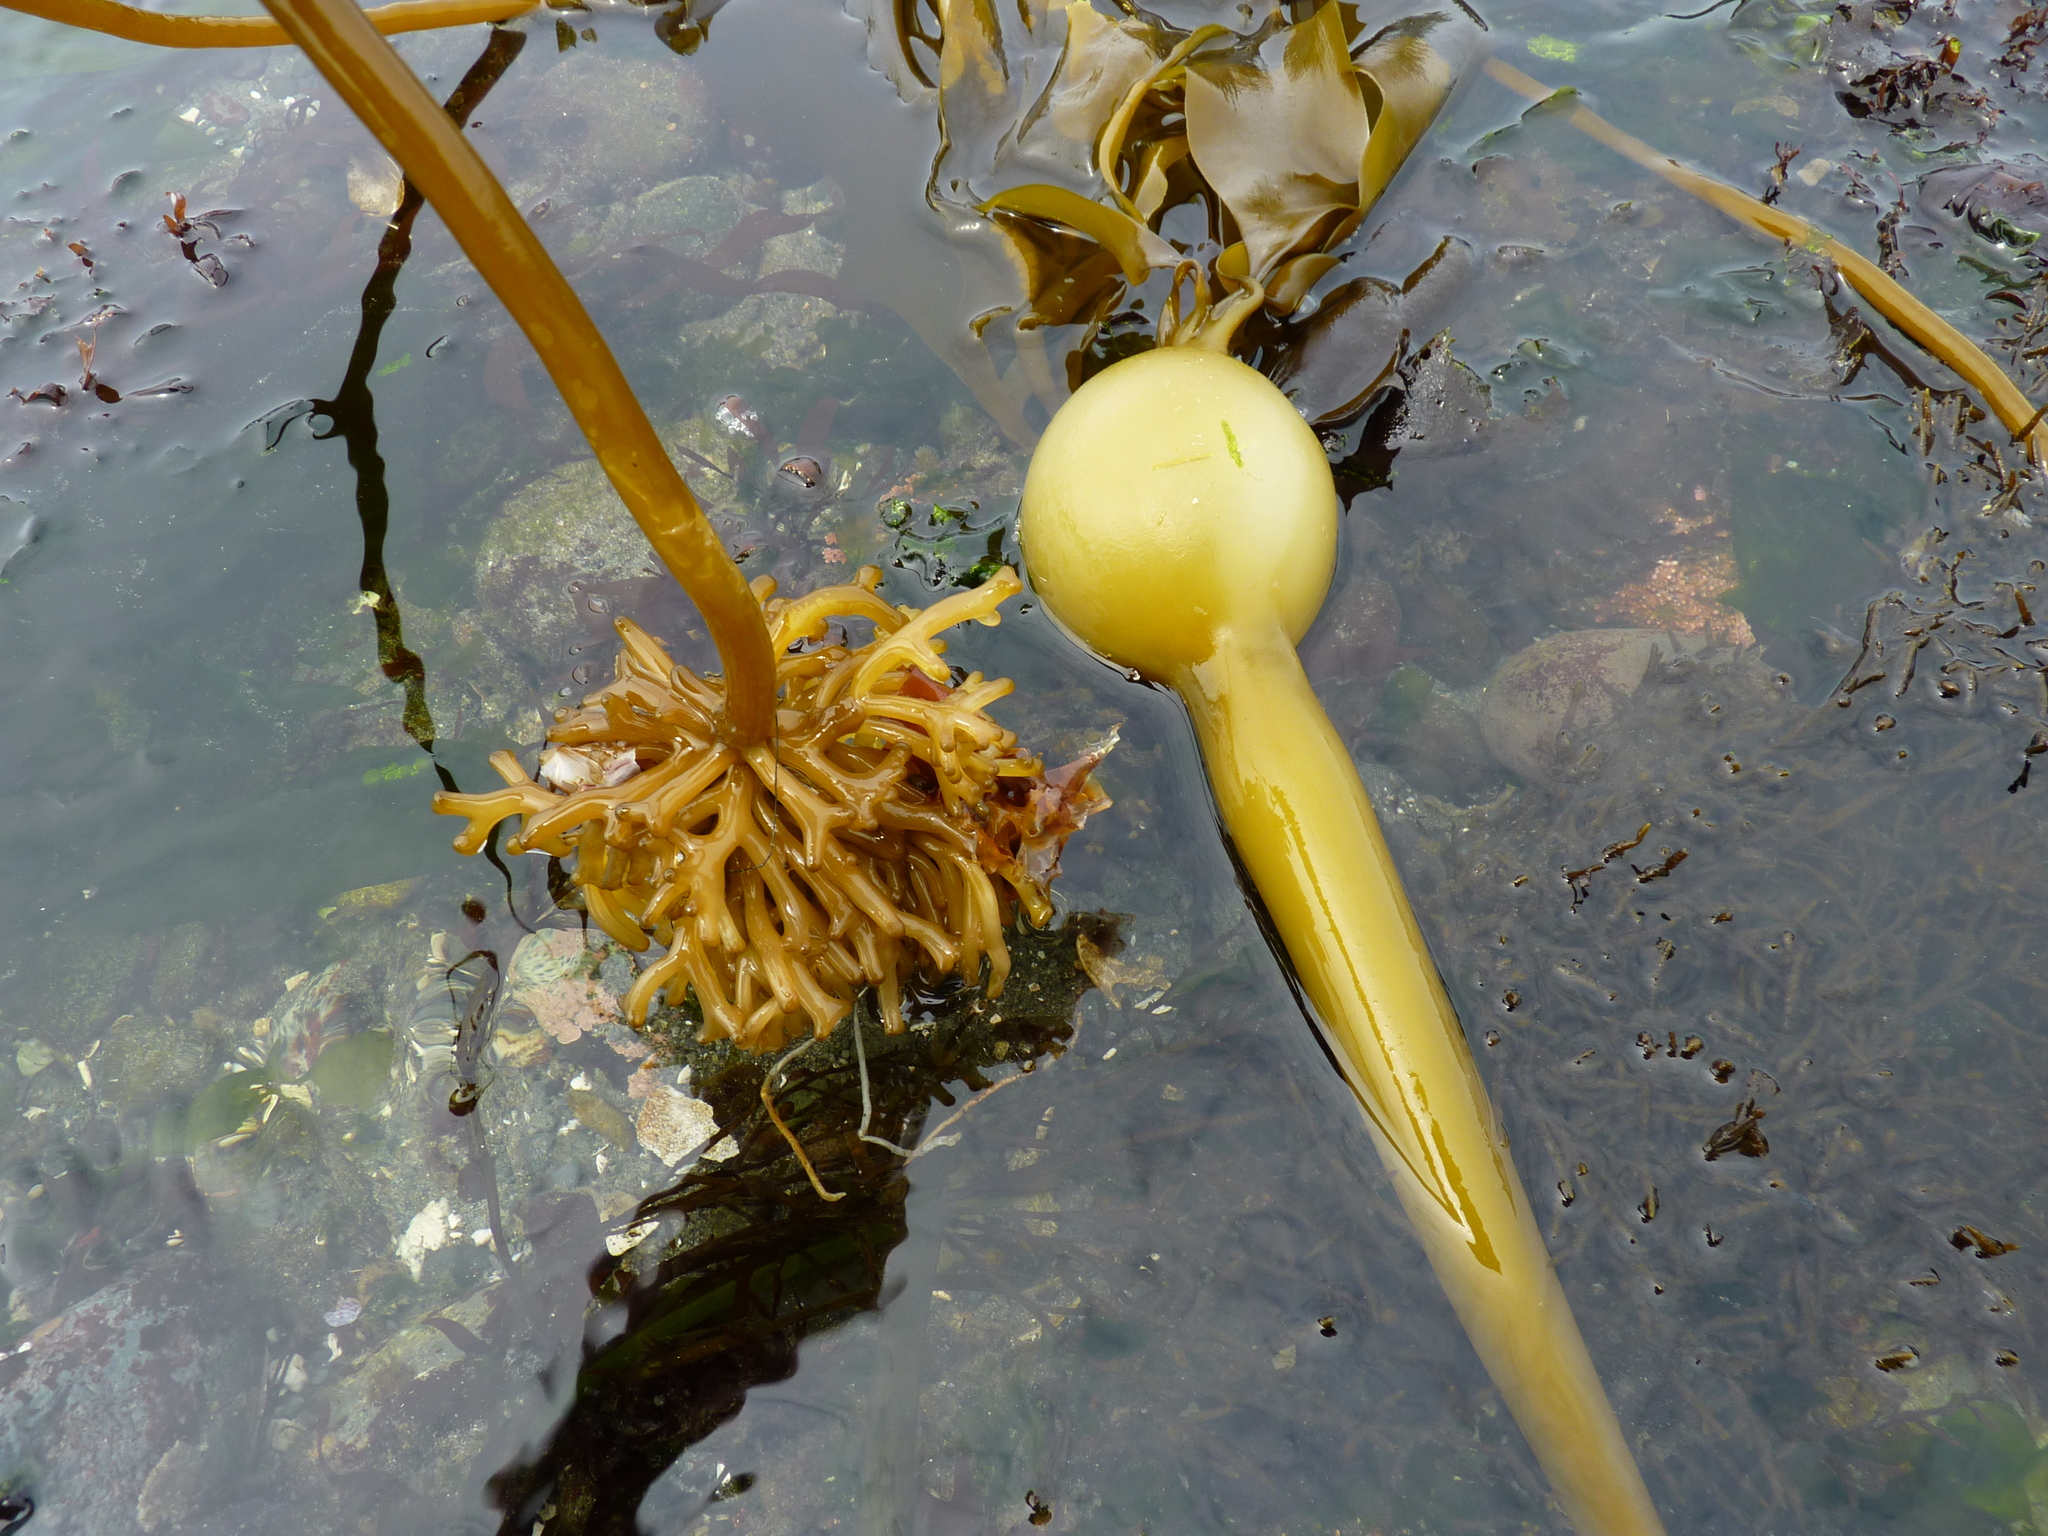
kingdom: Chromista
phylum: Ochrophyta
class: Phaeophyceae
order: Laminariales
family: Laminariaceae
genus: Nereocystis
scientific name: Nereocystis luetkeana
